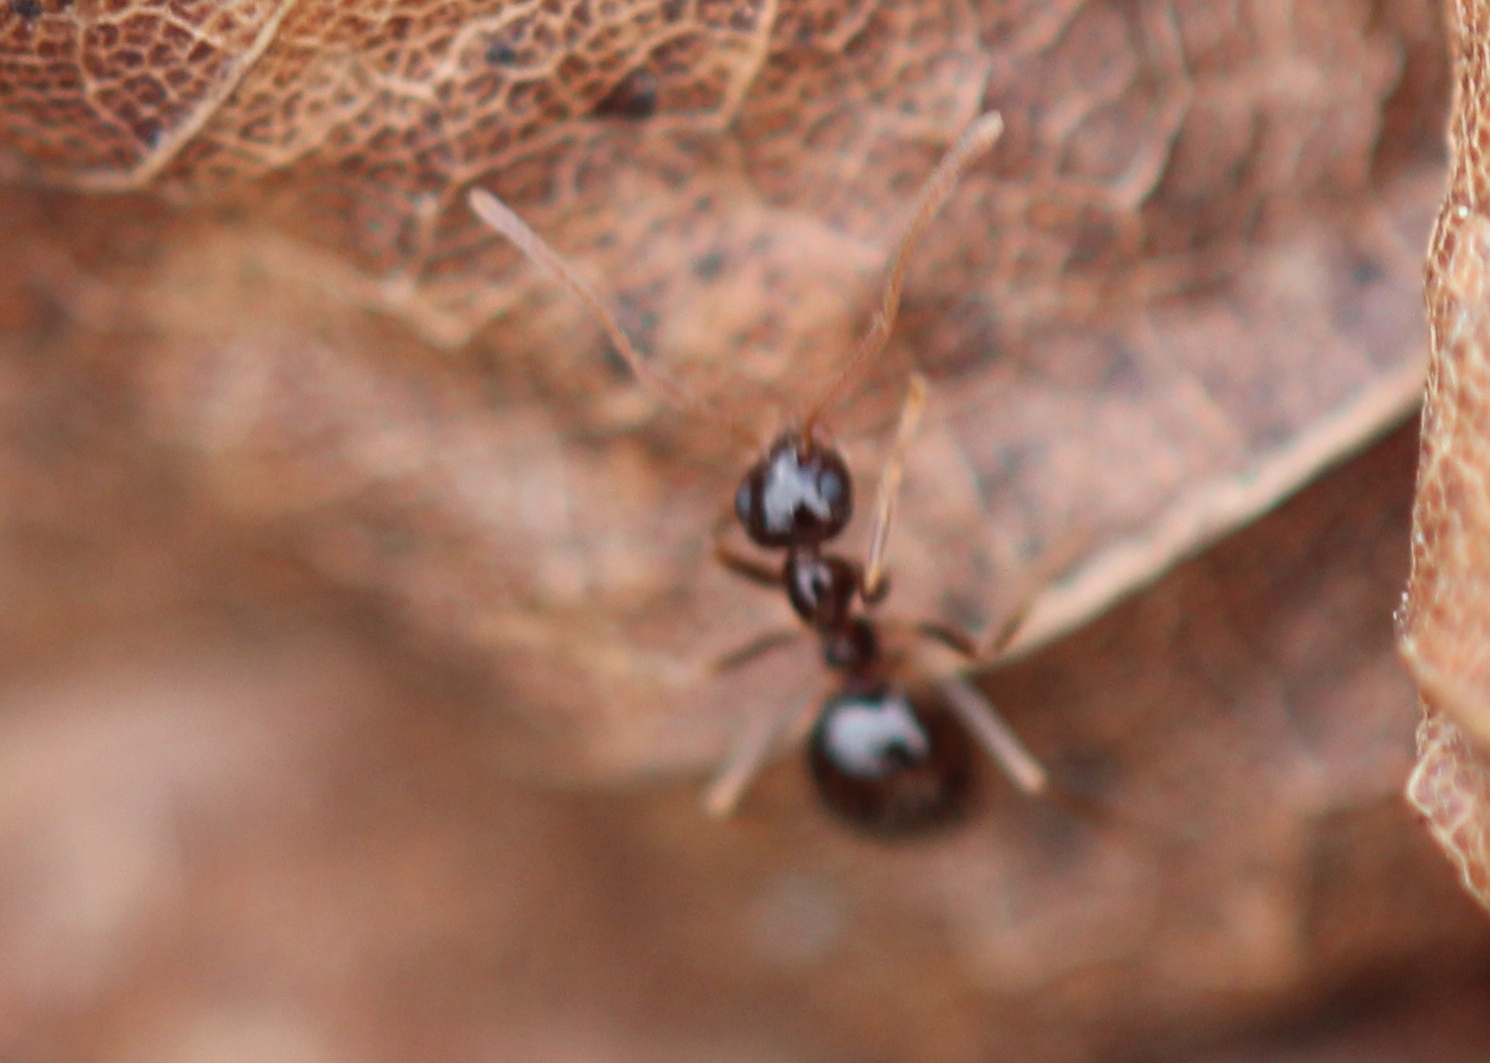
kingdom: Animalia
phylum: Arthropoda
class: Insecta
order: Hymenoptera
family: Formicidae
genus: Prenolepis
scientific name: Prenolepis imparis
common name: Small honey ant
